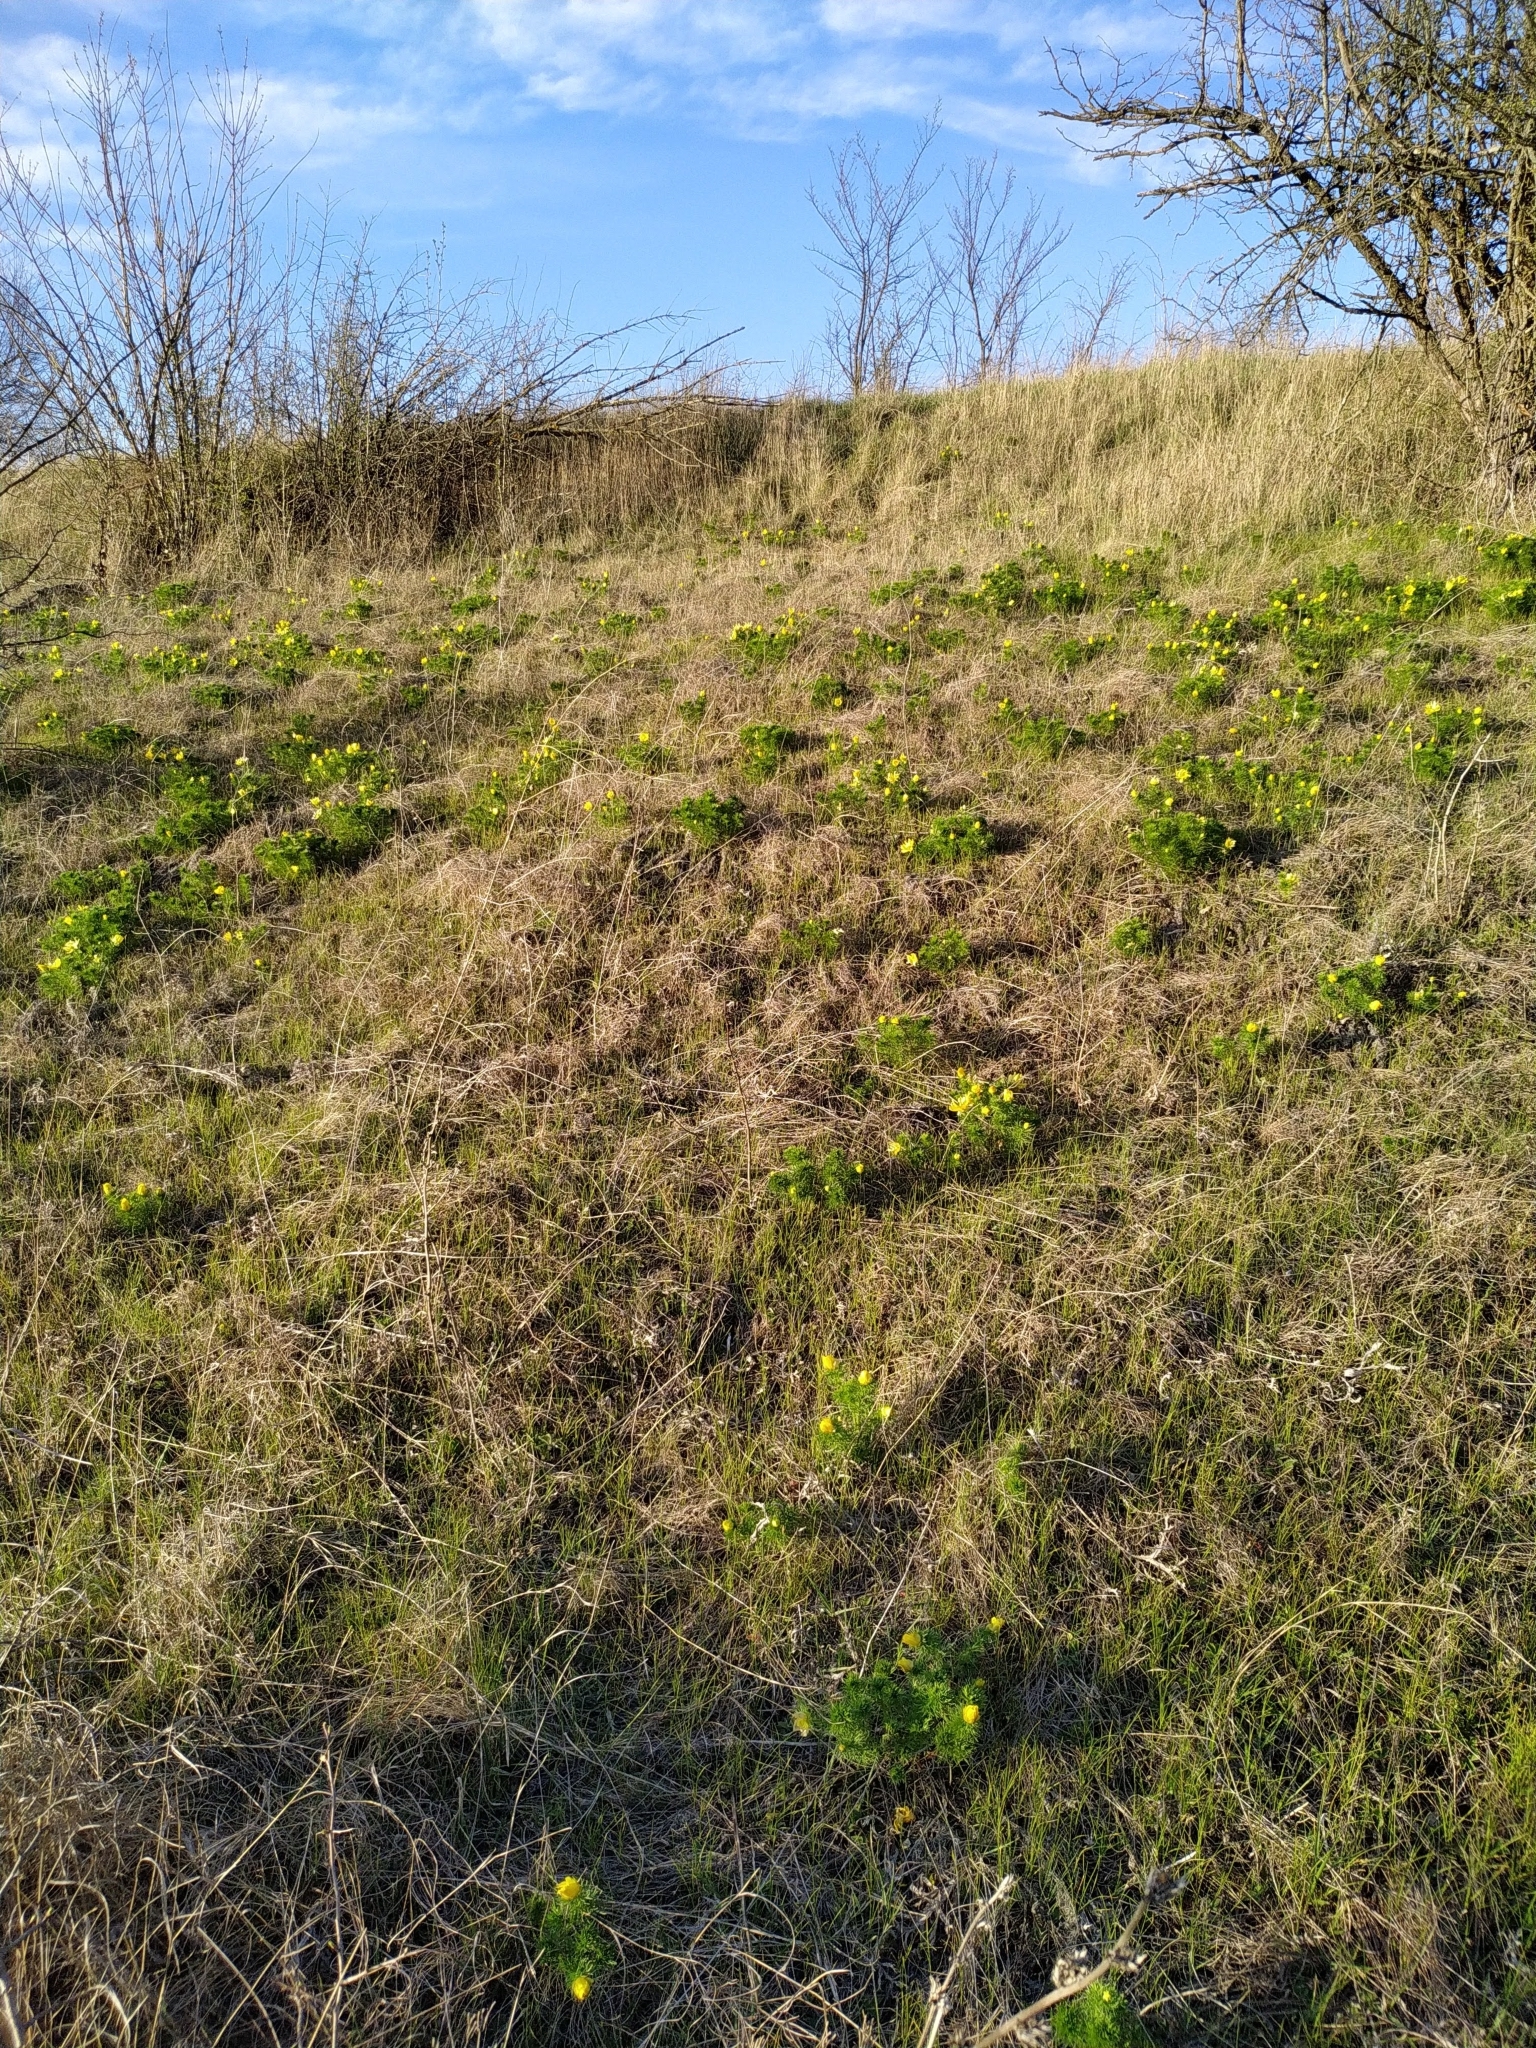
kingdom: Plantae
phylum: Tracheophyta
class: Magnoliopsida
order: Ranunculales
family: Ranunculaceae
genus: Adonis
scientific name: Adonis vernalis
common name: Yellow pheasants-eye
